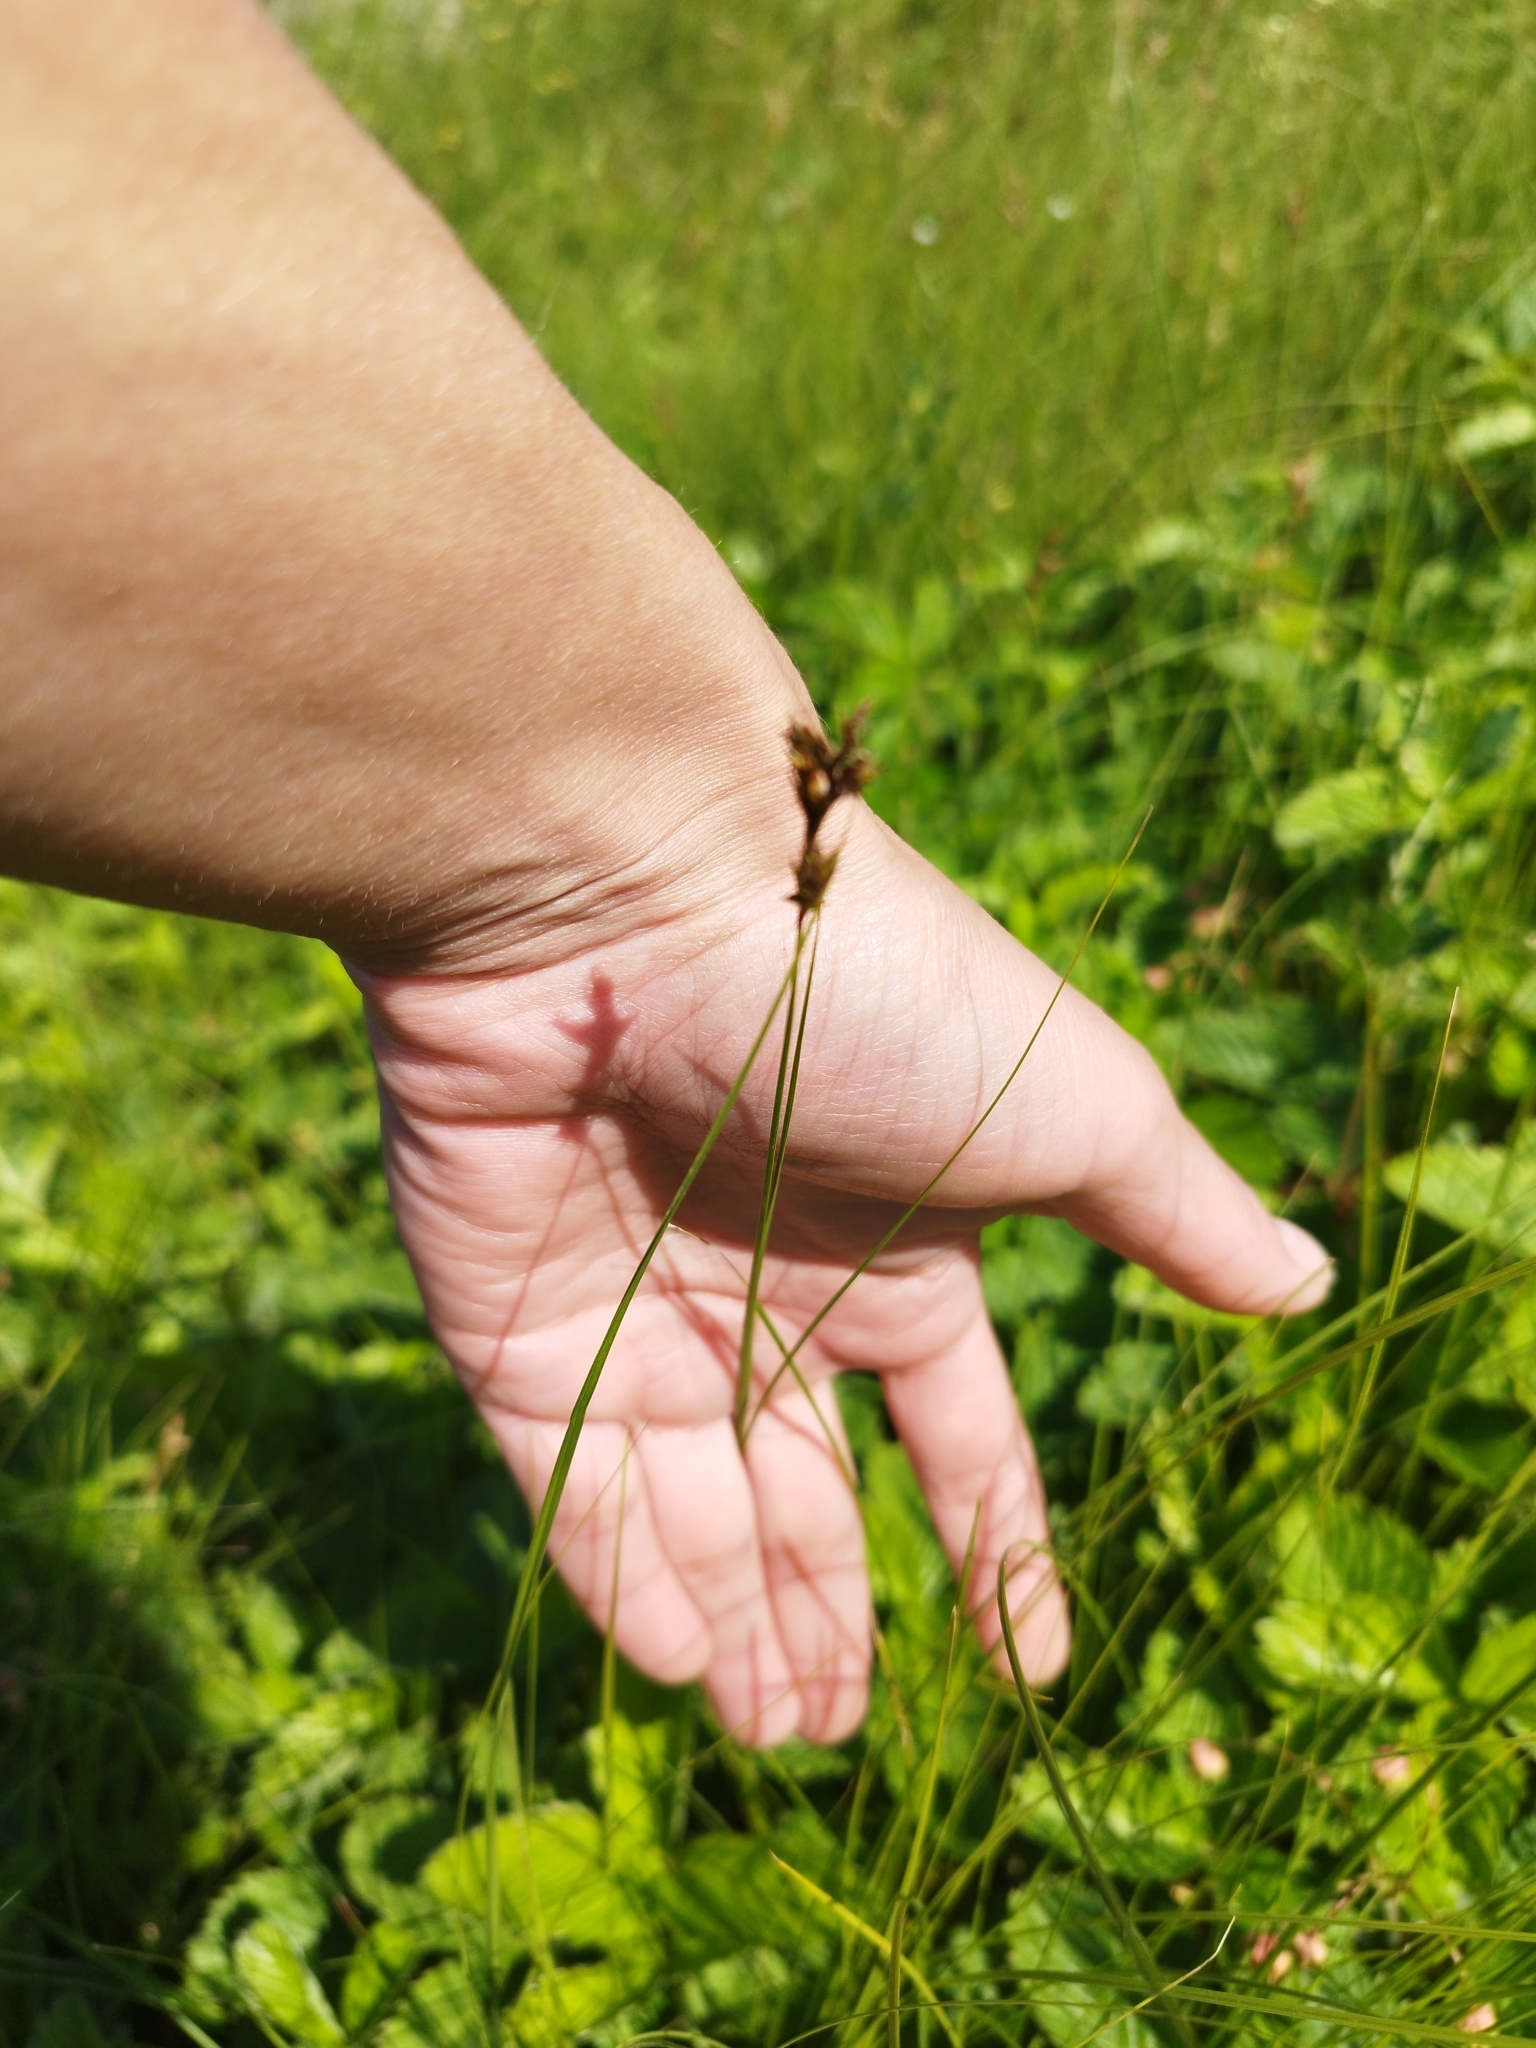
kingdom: Plantae
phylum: Tracheophyta
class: Liliopsida
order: Poales
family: Cyperaceae
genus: Carex
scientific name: Carex praecox
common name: Early sedge
